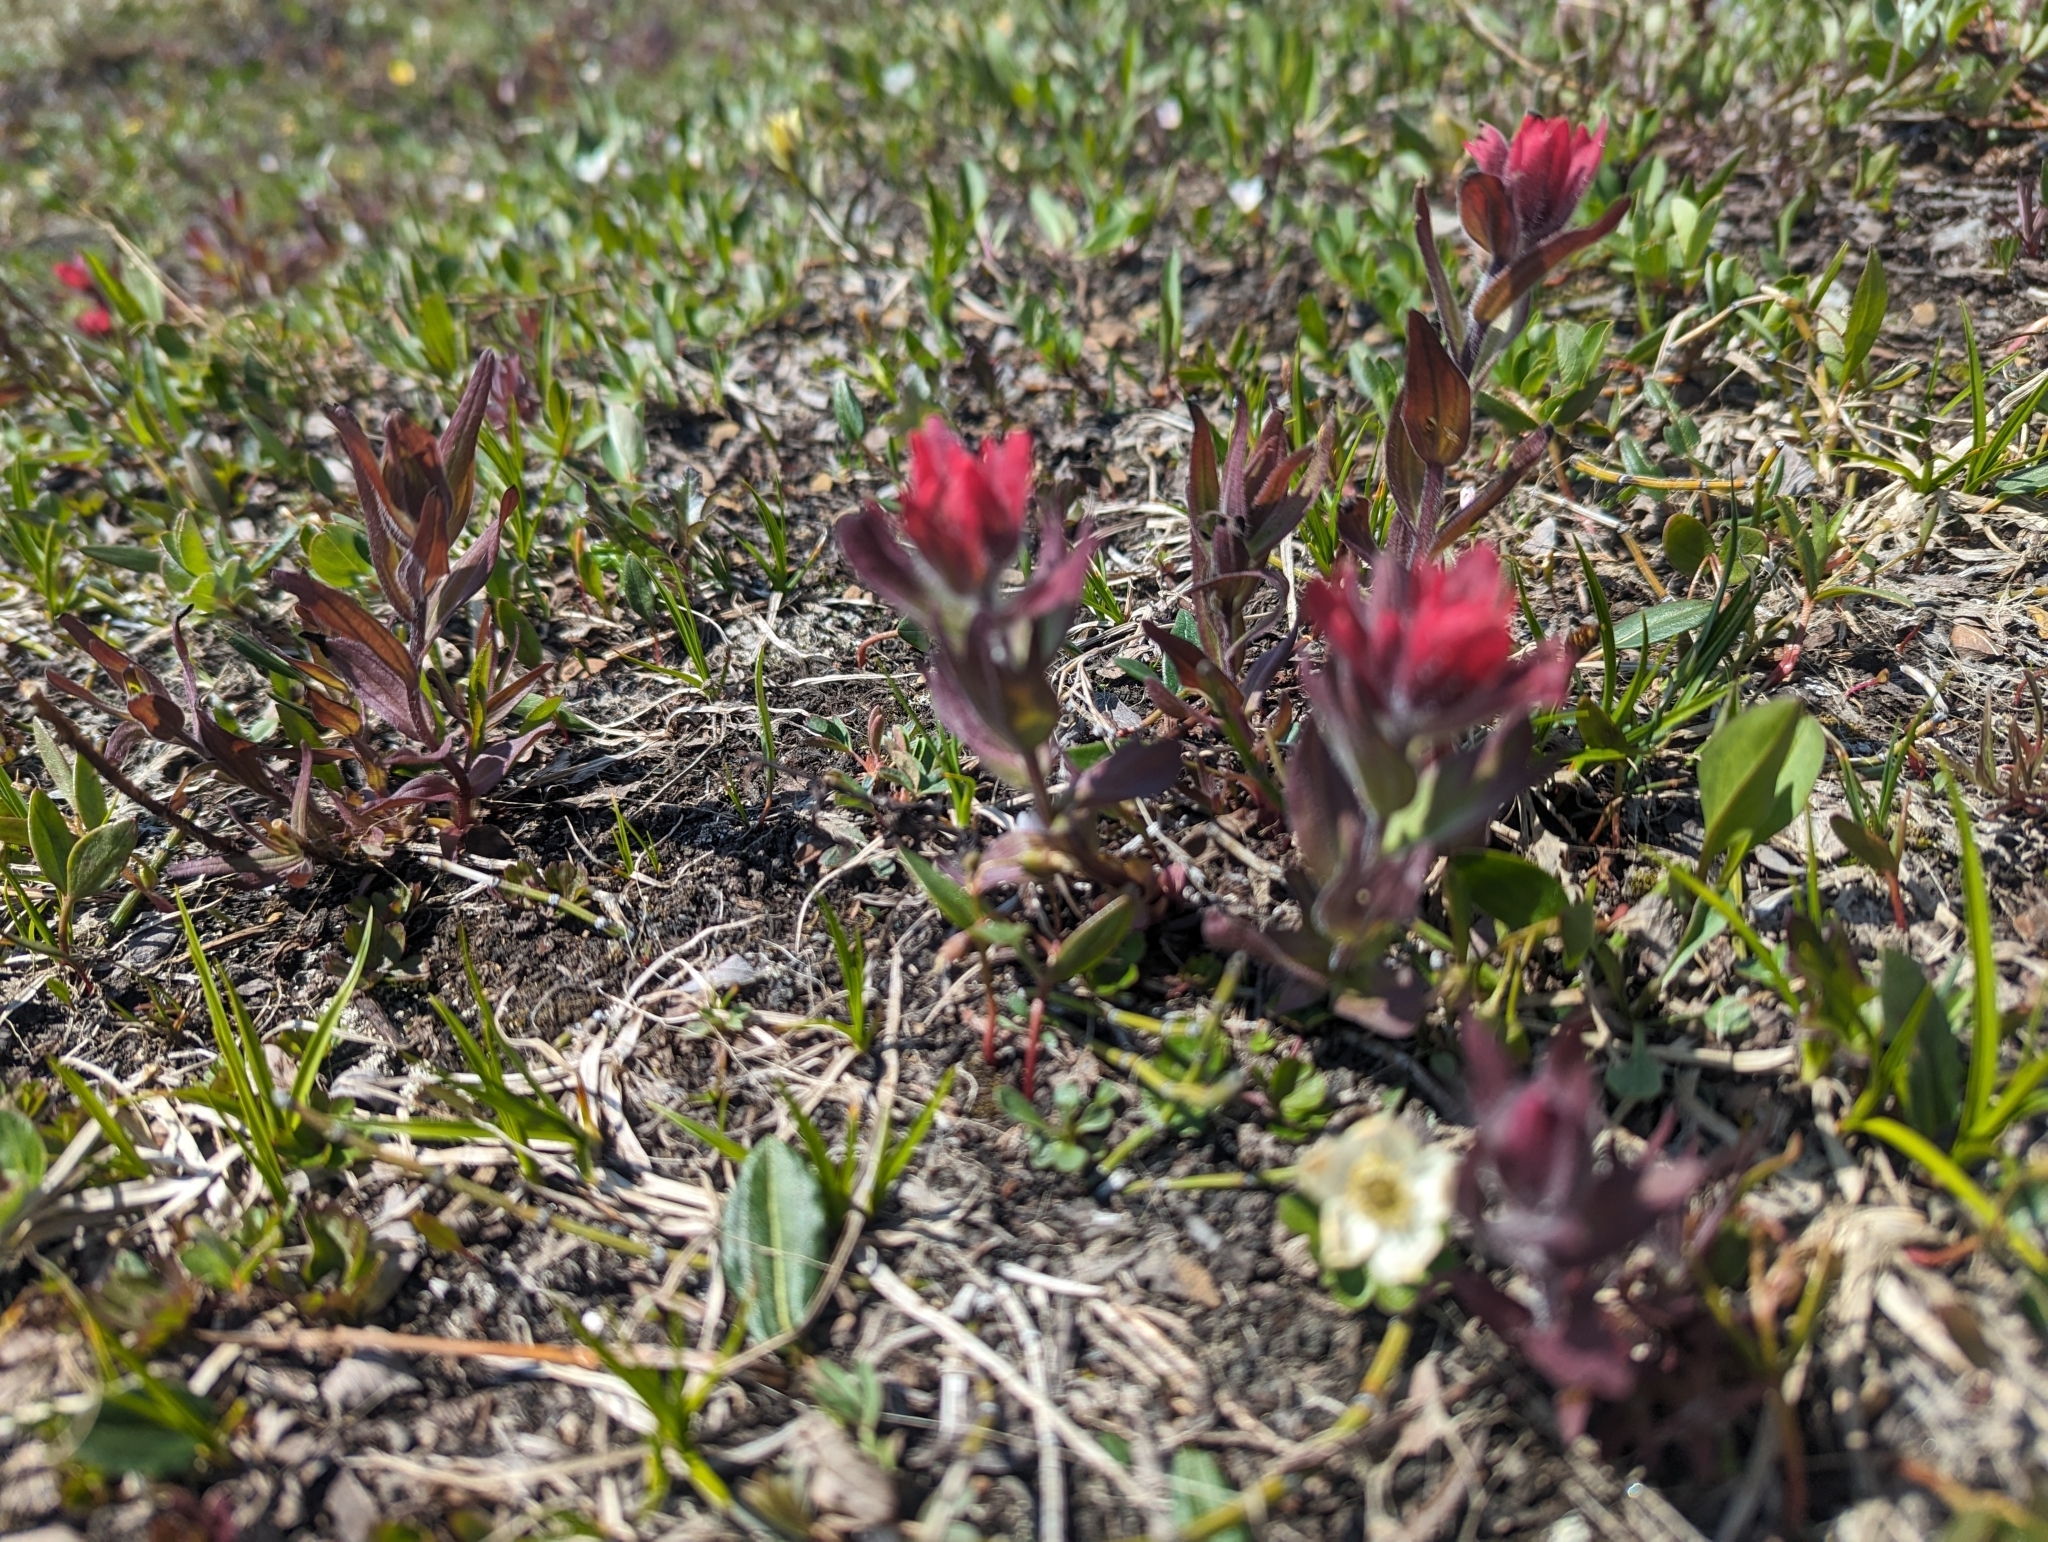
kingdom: Plantae
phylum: Tracheophyta
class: Magnoliopsida
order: Lamiales
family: Orobanchaceae
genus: Castilleja
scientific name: Castilleja rhexifolia
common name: Rocky mountain paintbrush
